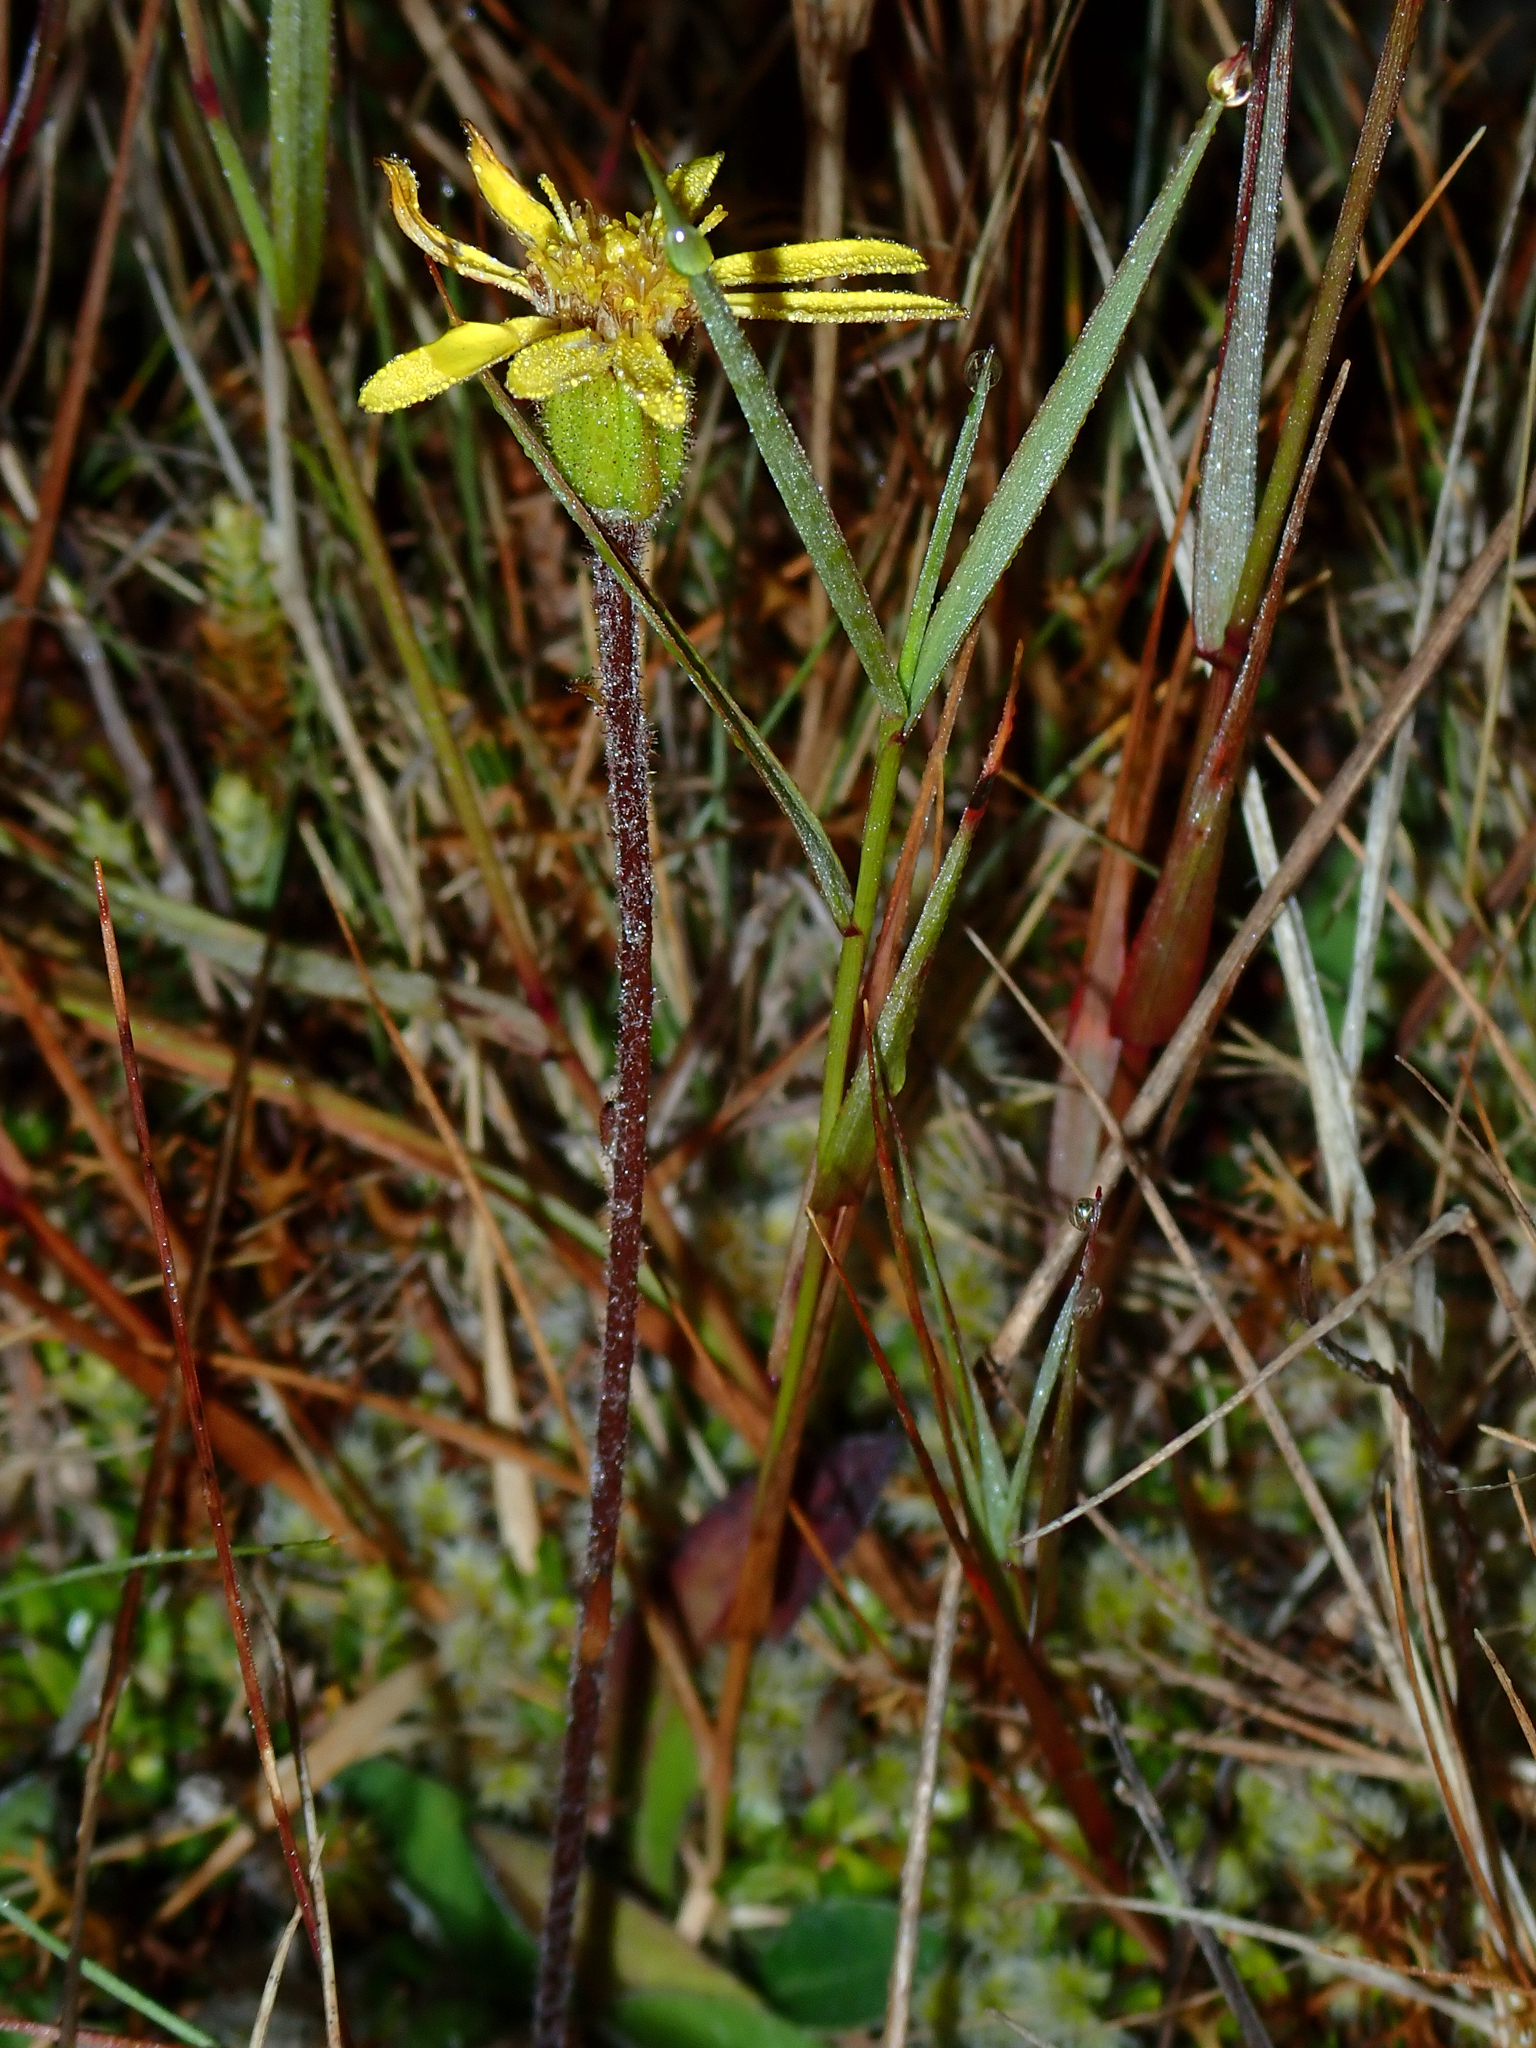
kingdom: Plantae
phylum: Tracheophyta
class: Magnoliopsida
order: Asterales
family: Asteraceae
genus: Brachyglottis
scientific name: Brachyglottis lagopus
